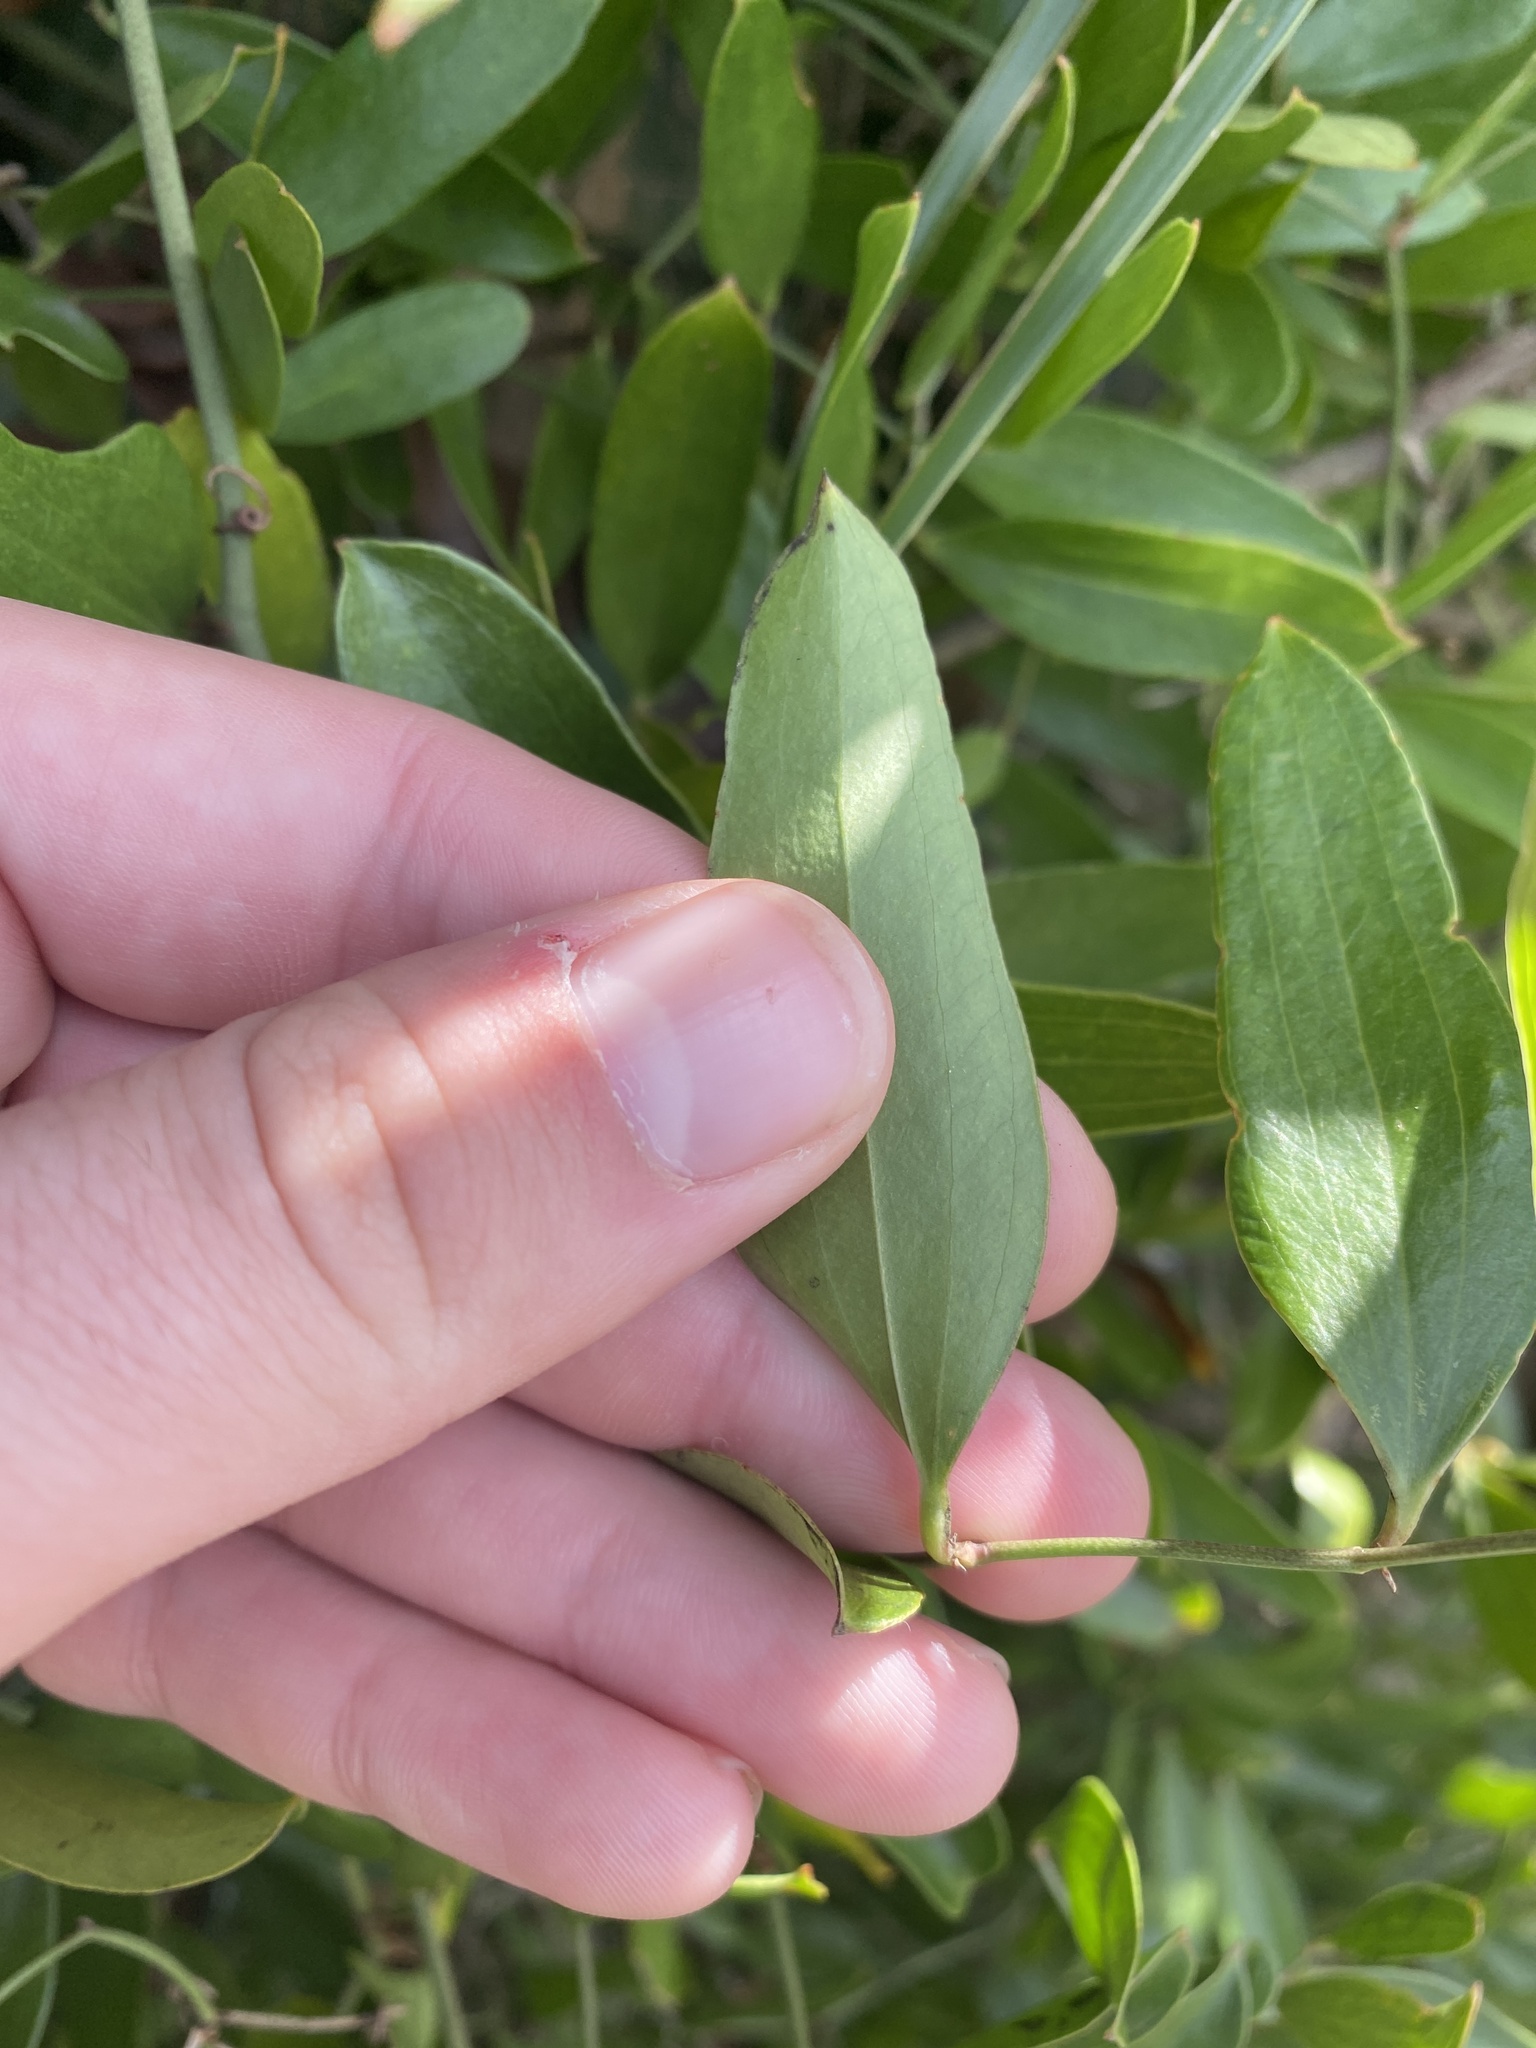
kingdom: Plantae
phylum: Tracheophyta
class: Liliopsida
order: Liliales
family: Smilacaceae
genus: Smilax
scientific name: Smilax auriculata
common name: Wild bamboo
